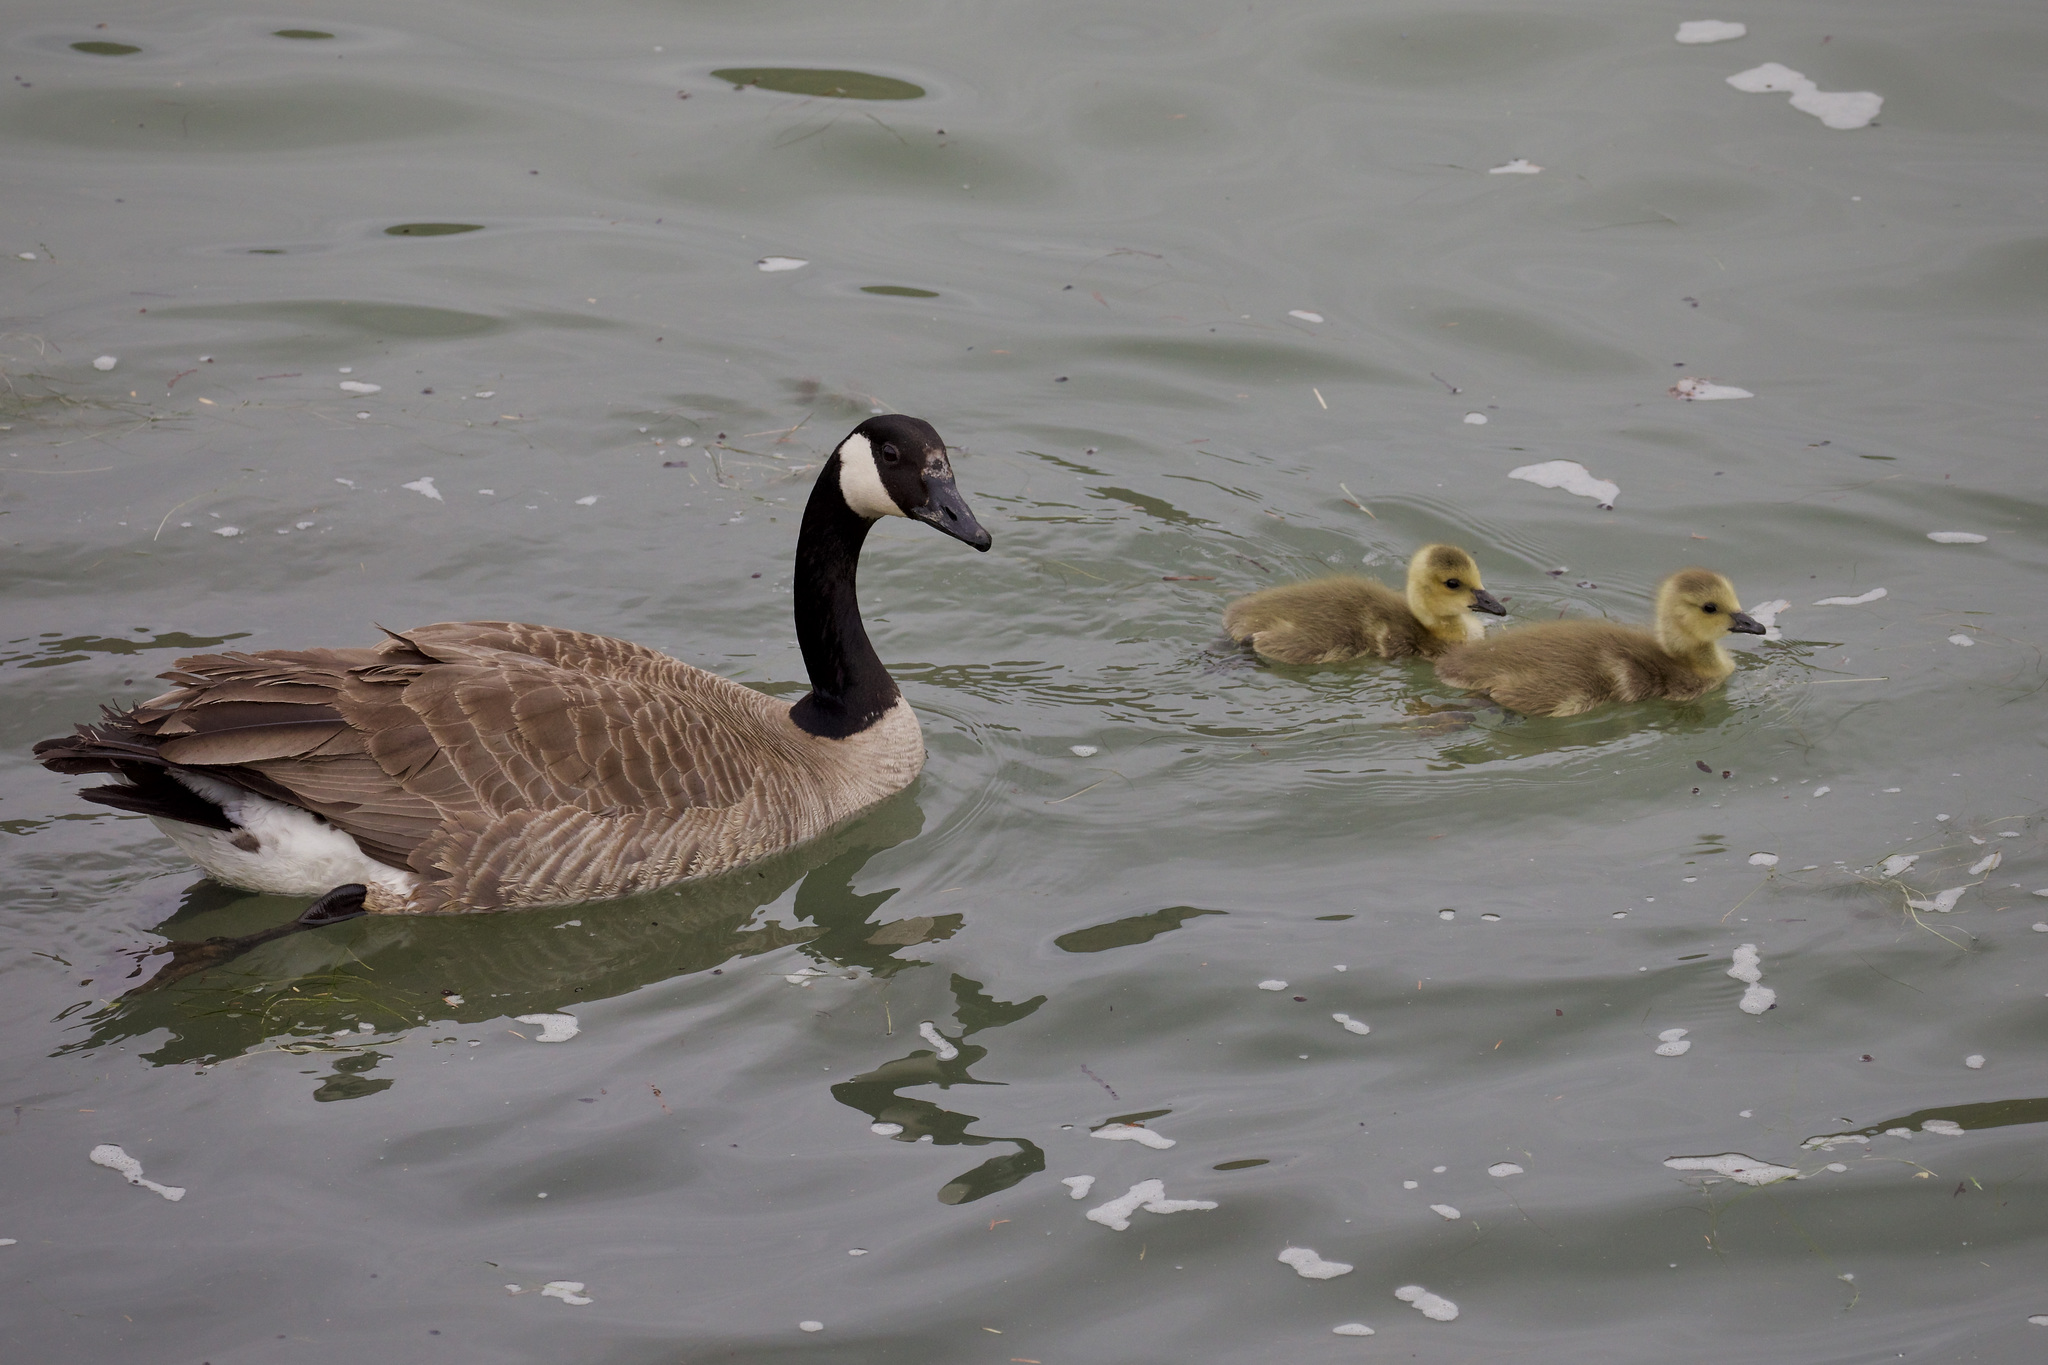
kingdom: Animalia
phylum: Chordata
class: Aves
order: Anseriformes
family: Anatidae
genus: Branta
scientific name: Branta canadensis
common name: Canada goose
